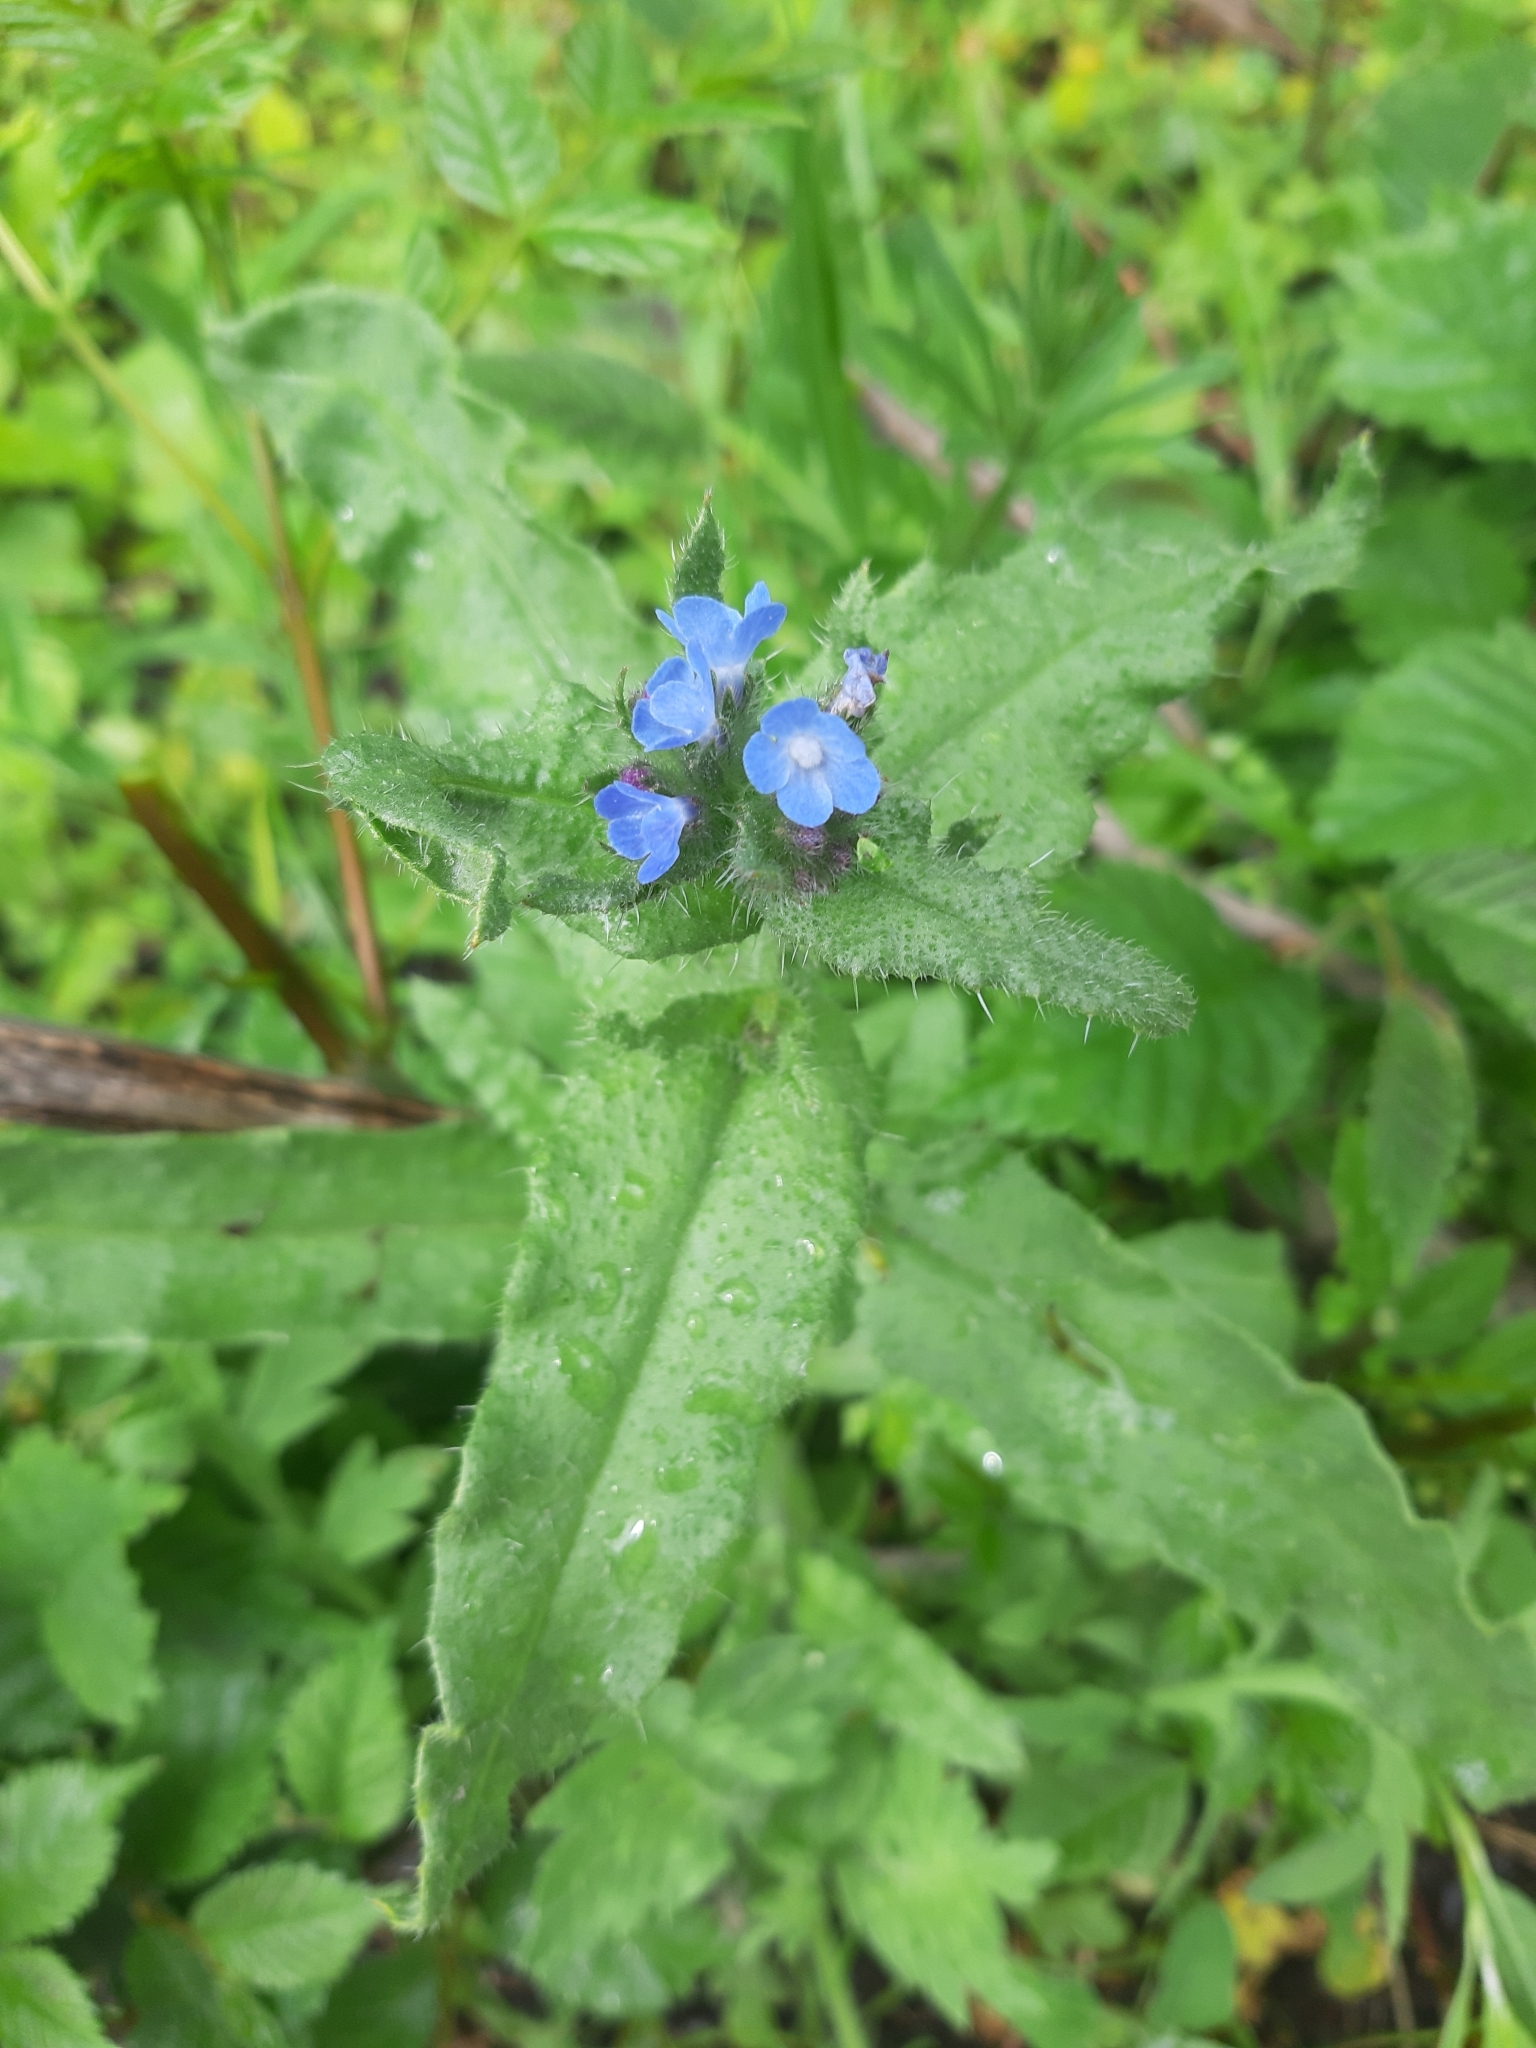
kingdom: Plantae
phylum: Tracheophyta
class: Magnoliopsida
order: Boraginales
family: Boraginaceae
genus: Lycopsis
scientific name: Lycopsis arvensis
